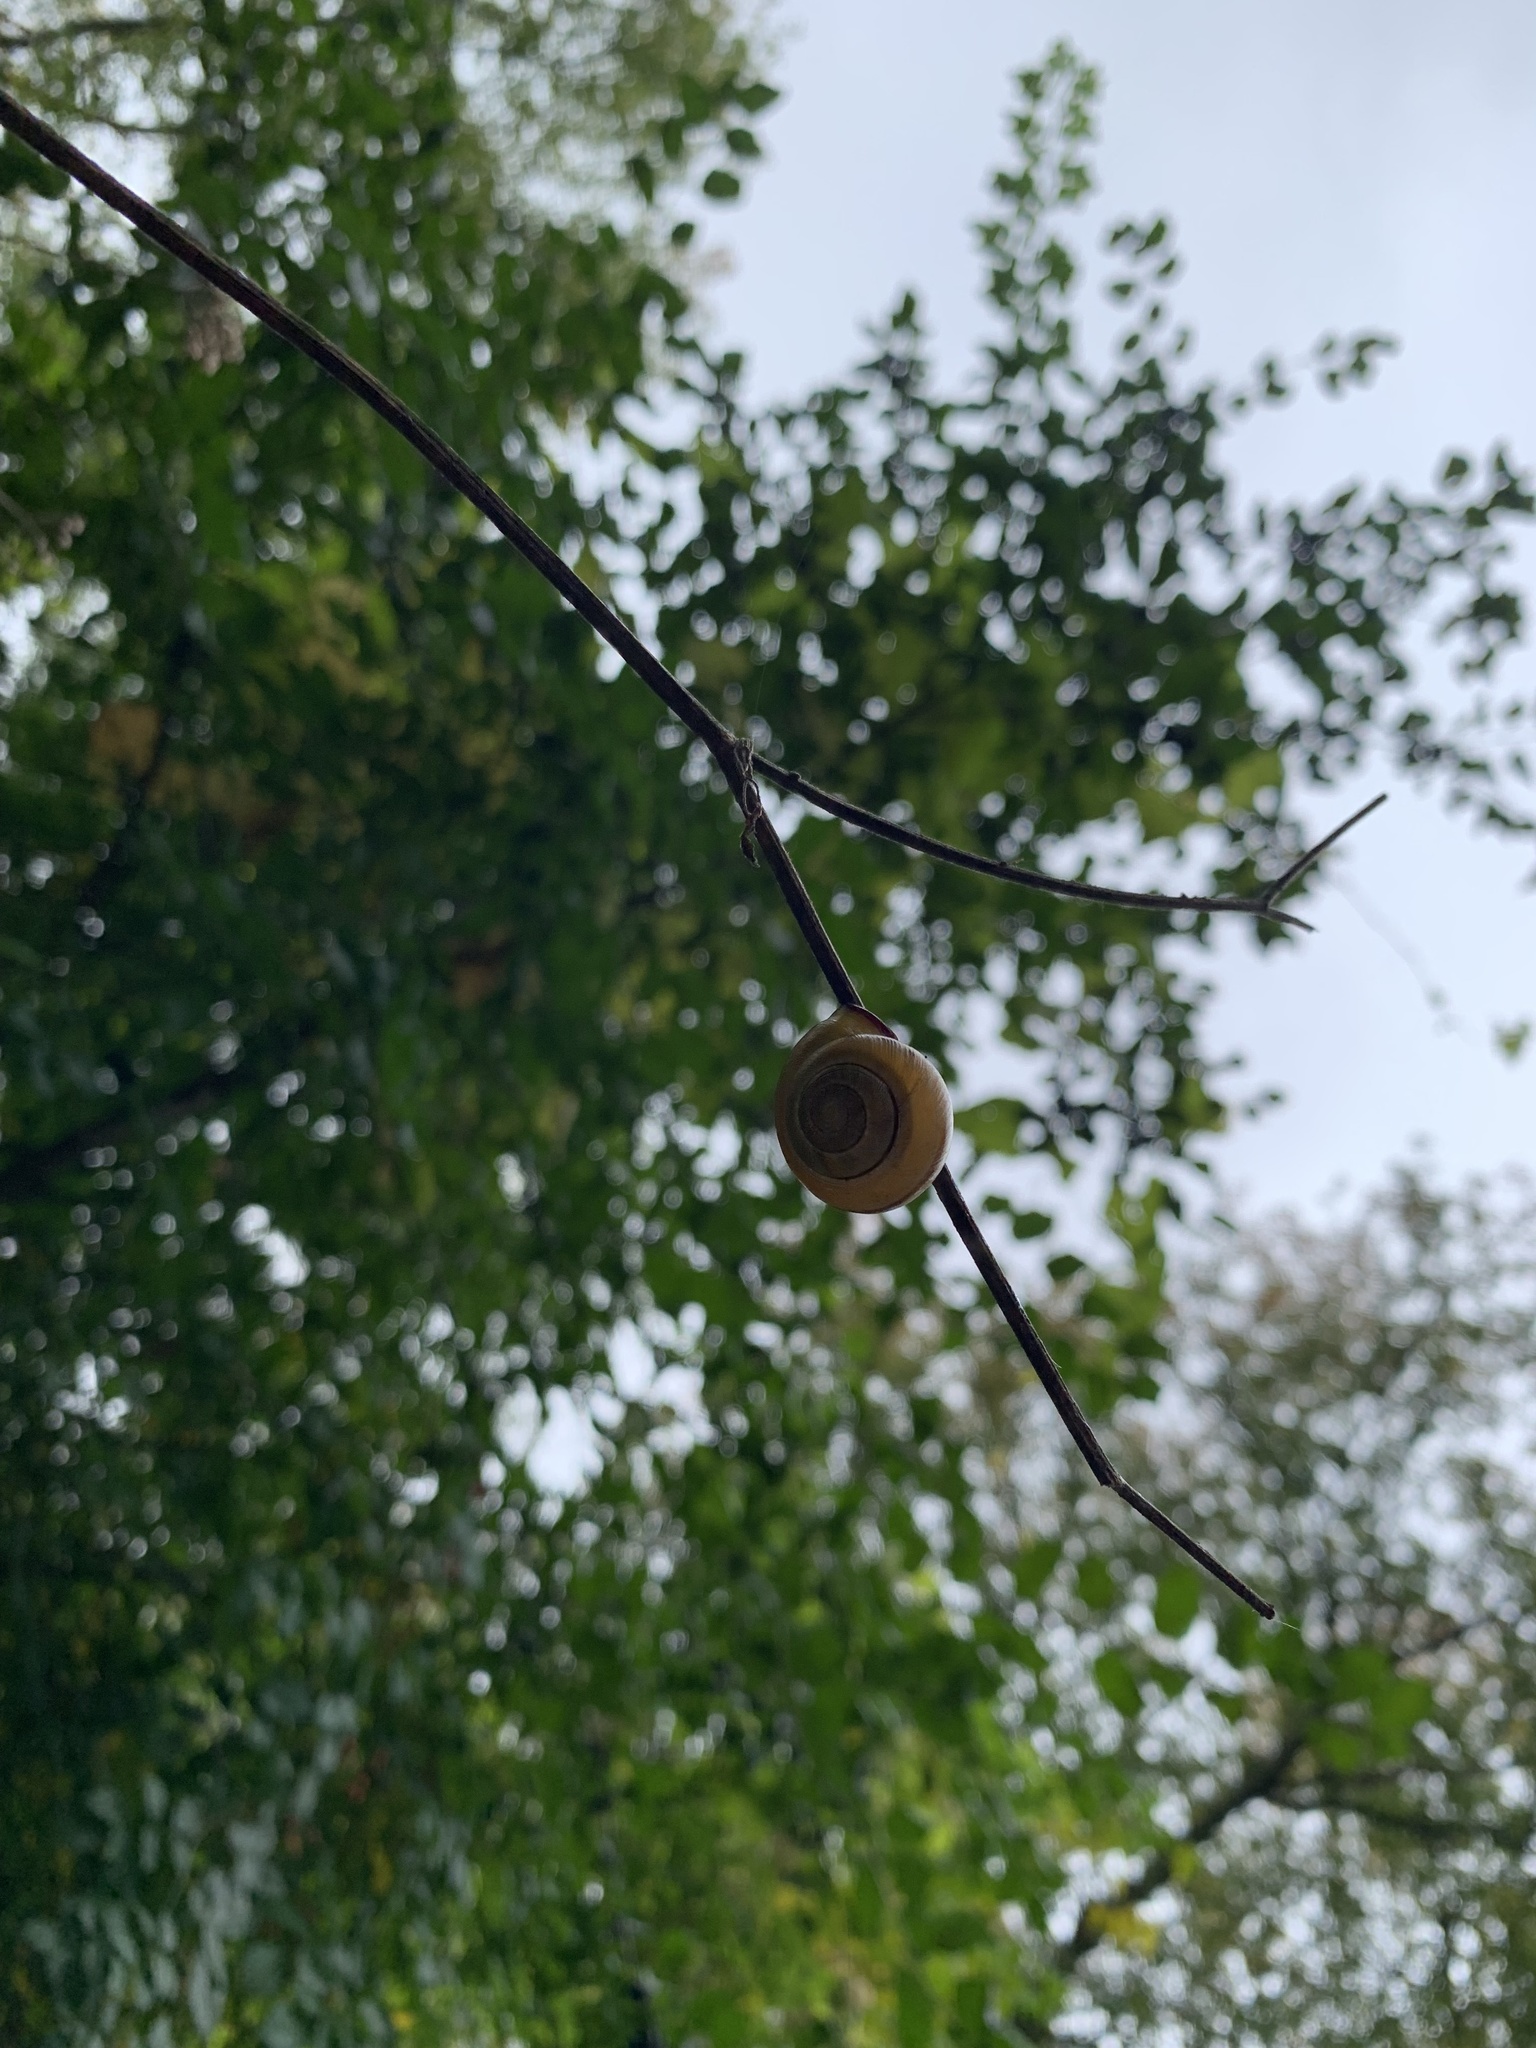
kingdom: Animalia
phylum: Mollusca
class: Gastropoda
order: Stylommatophora
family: Helicidae
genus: Cepaea
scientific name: Cepaea nemoralis
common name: Grovesnail
